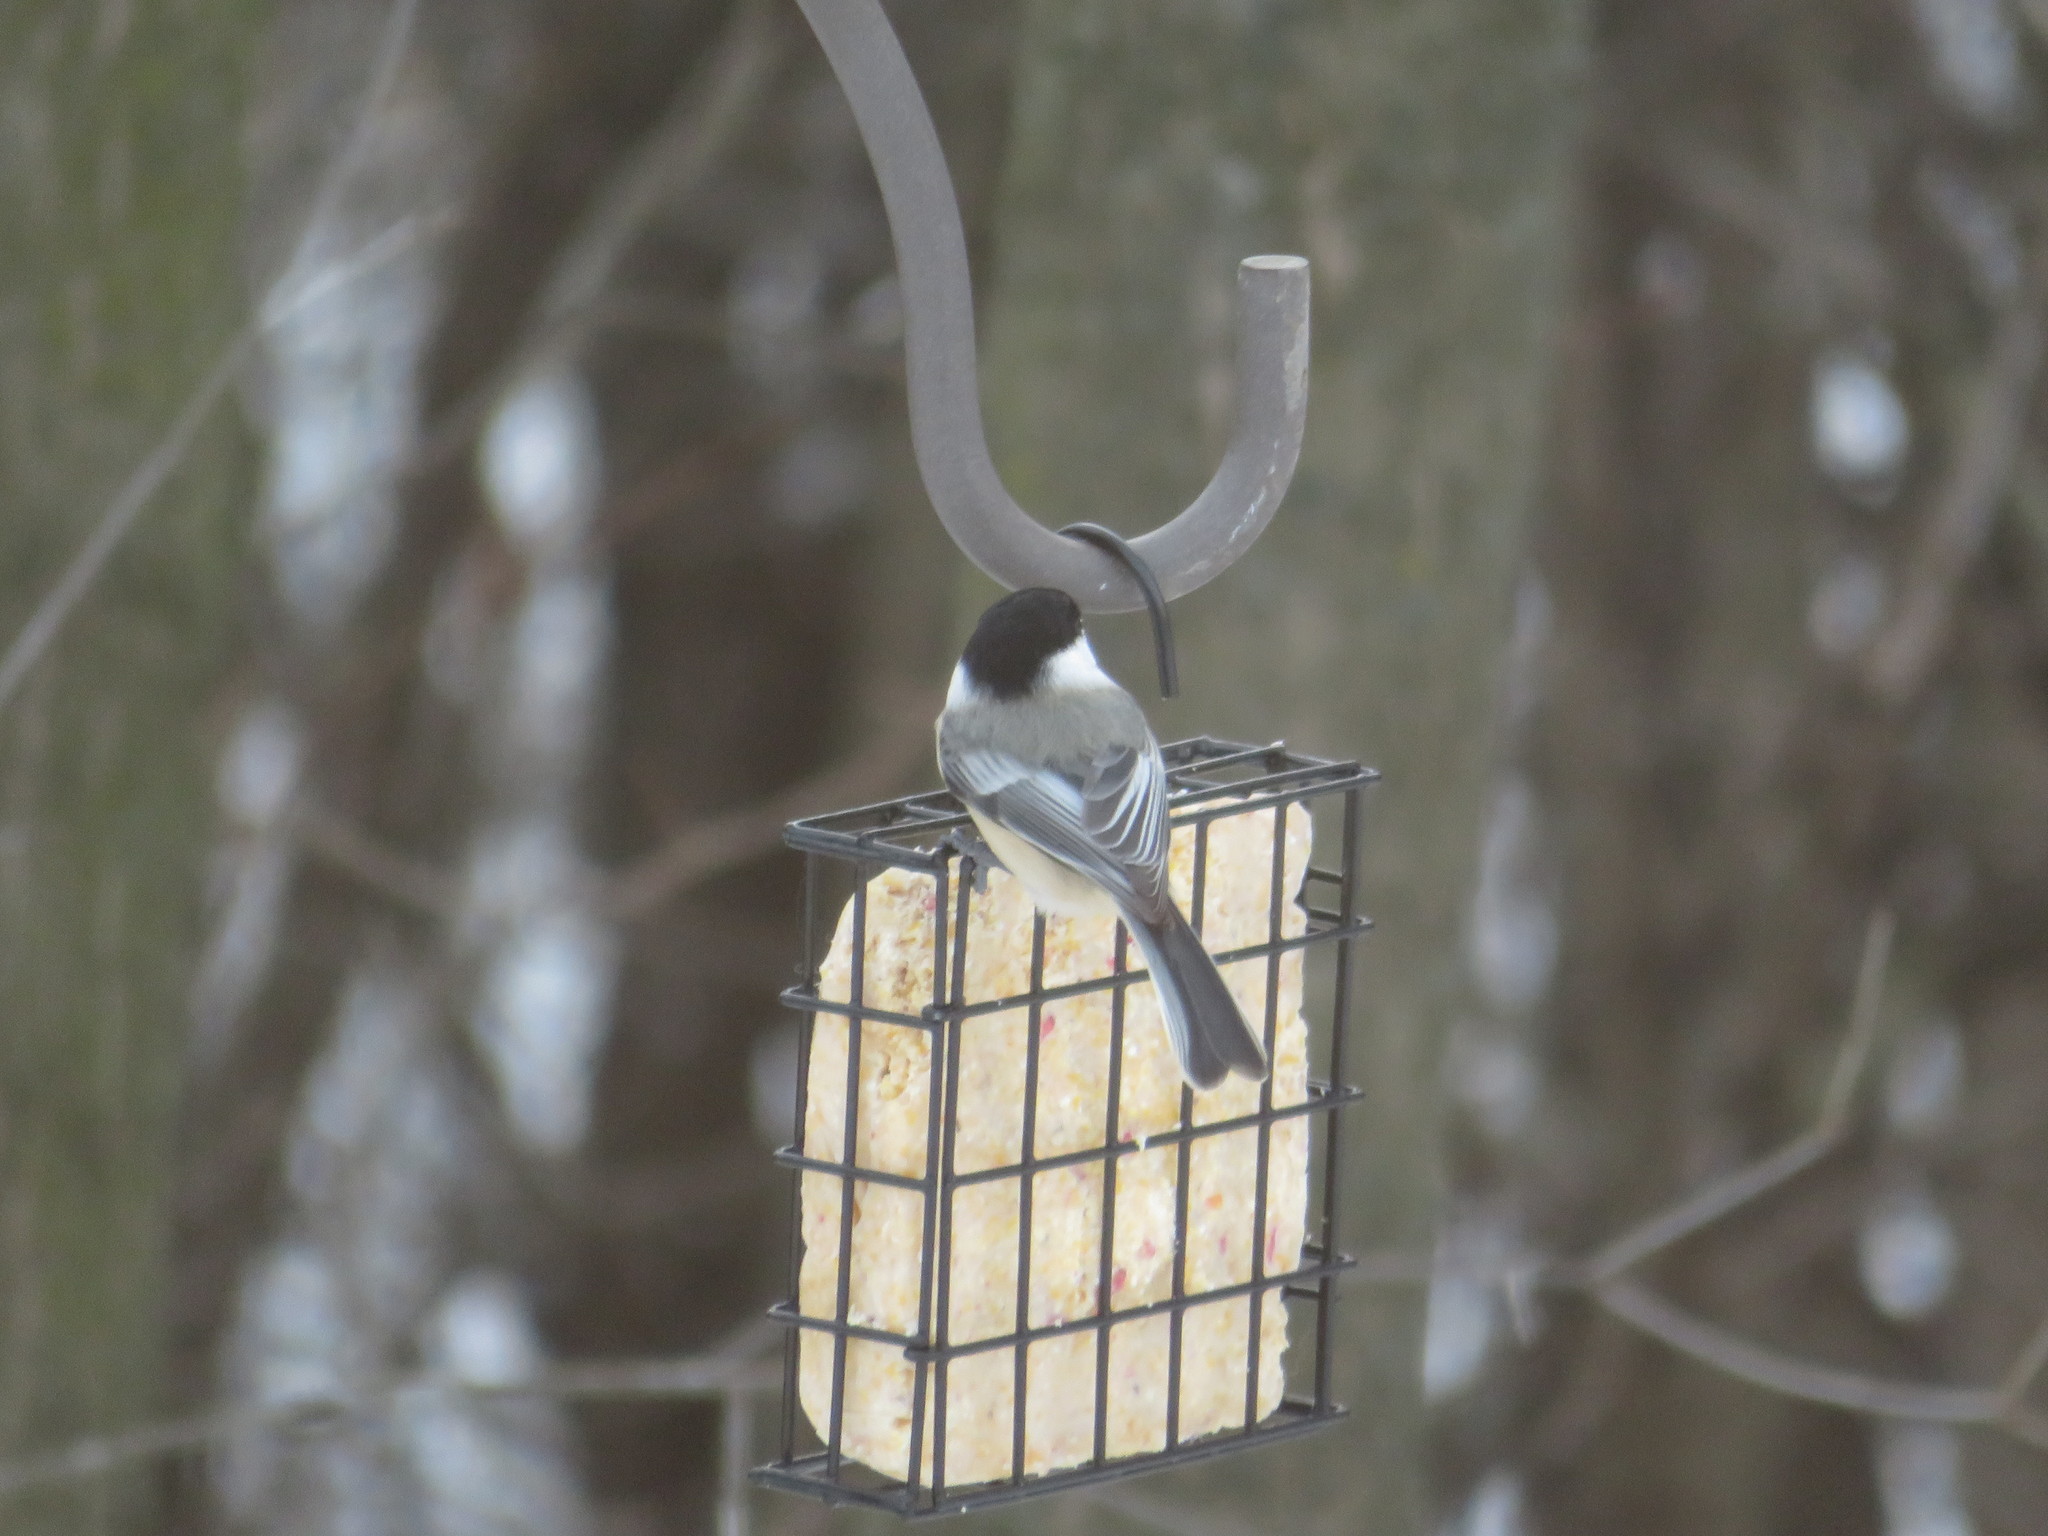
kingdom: Animalia
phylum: Chordata
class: Aves
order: Passeriformes
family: Paridae
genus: Poecile
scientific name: Poecile atricapillus
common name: Black-capped chickadee
